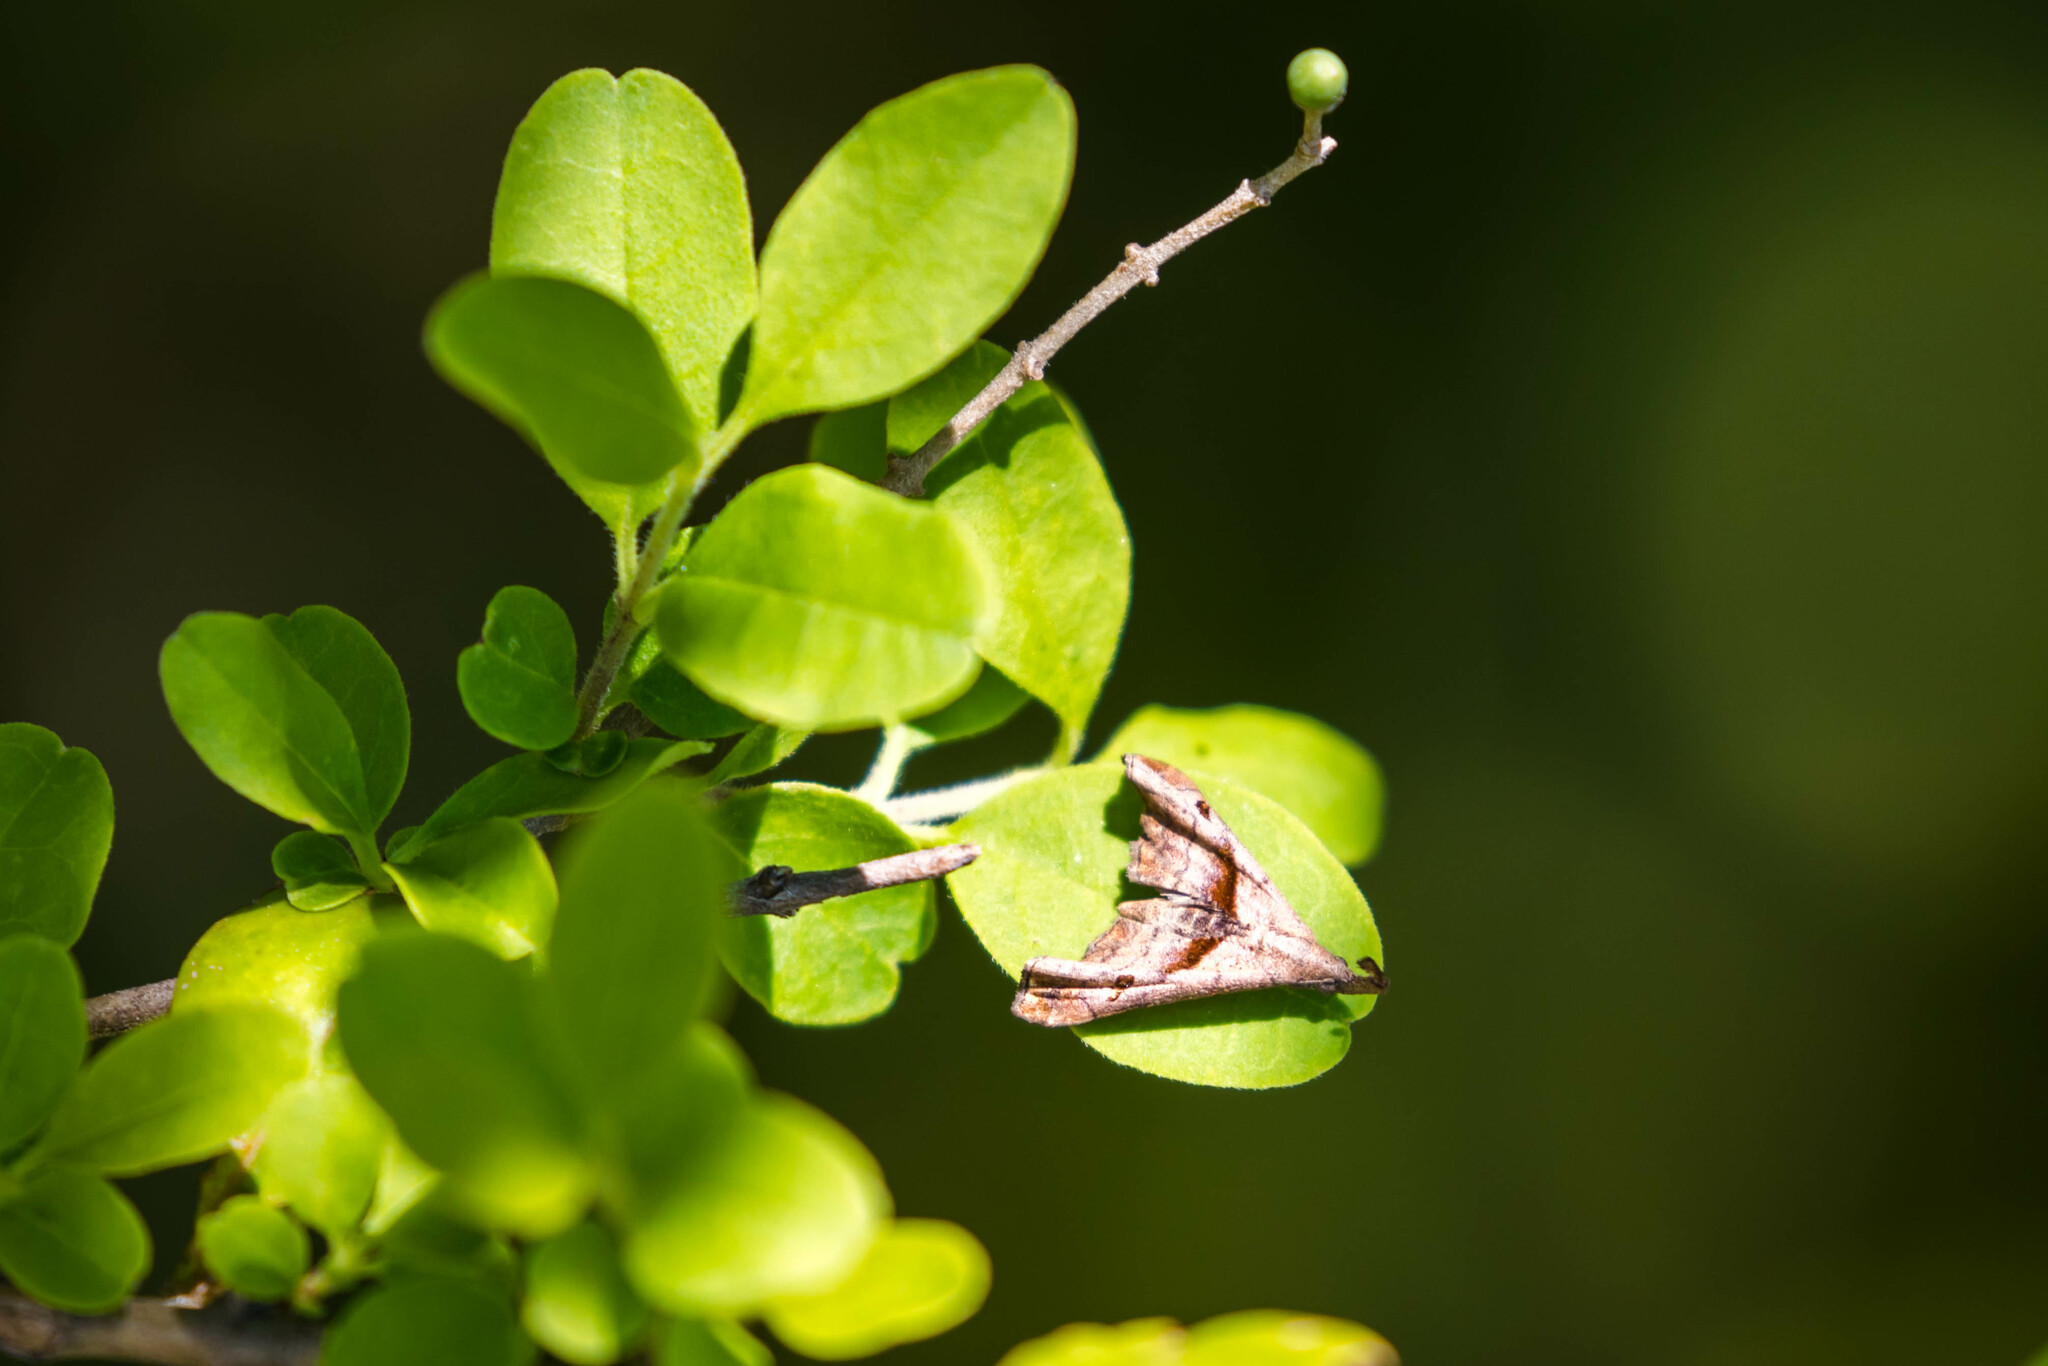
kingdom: Animalia
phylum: Arthropoda
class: Insecta
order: Lepidoptera
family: Erebidae
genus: Palthis
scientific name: Palthis angulalis
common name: Dark-spotted palthis moth
